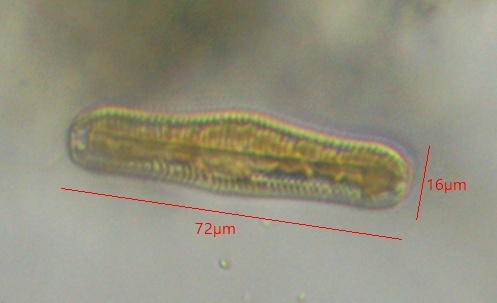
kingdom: Chromista
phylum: Ochrophyta
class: Bacillariophyceae
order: Rhopalodiales
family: Rhopalodiaceae
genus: Epithemia
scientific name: Epithemia gibba
